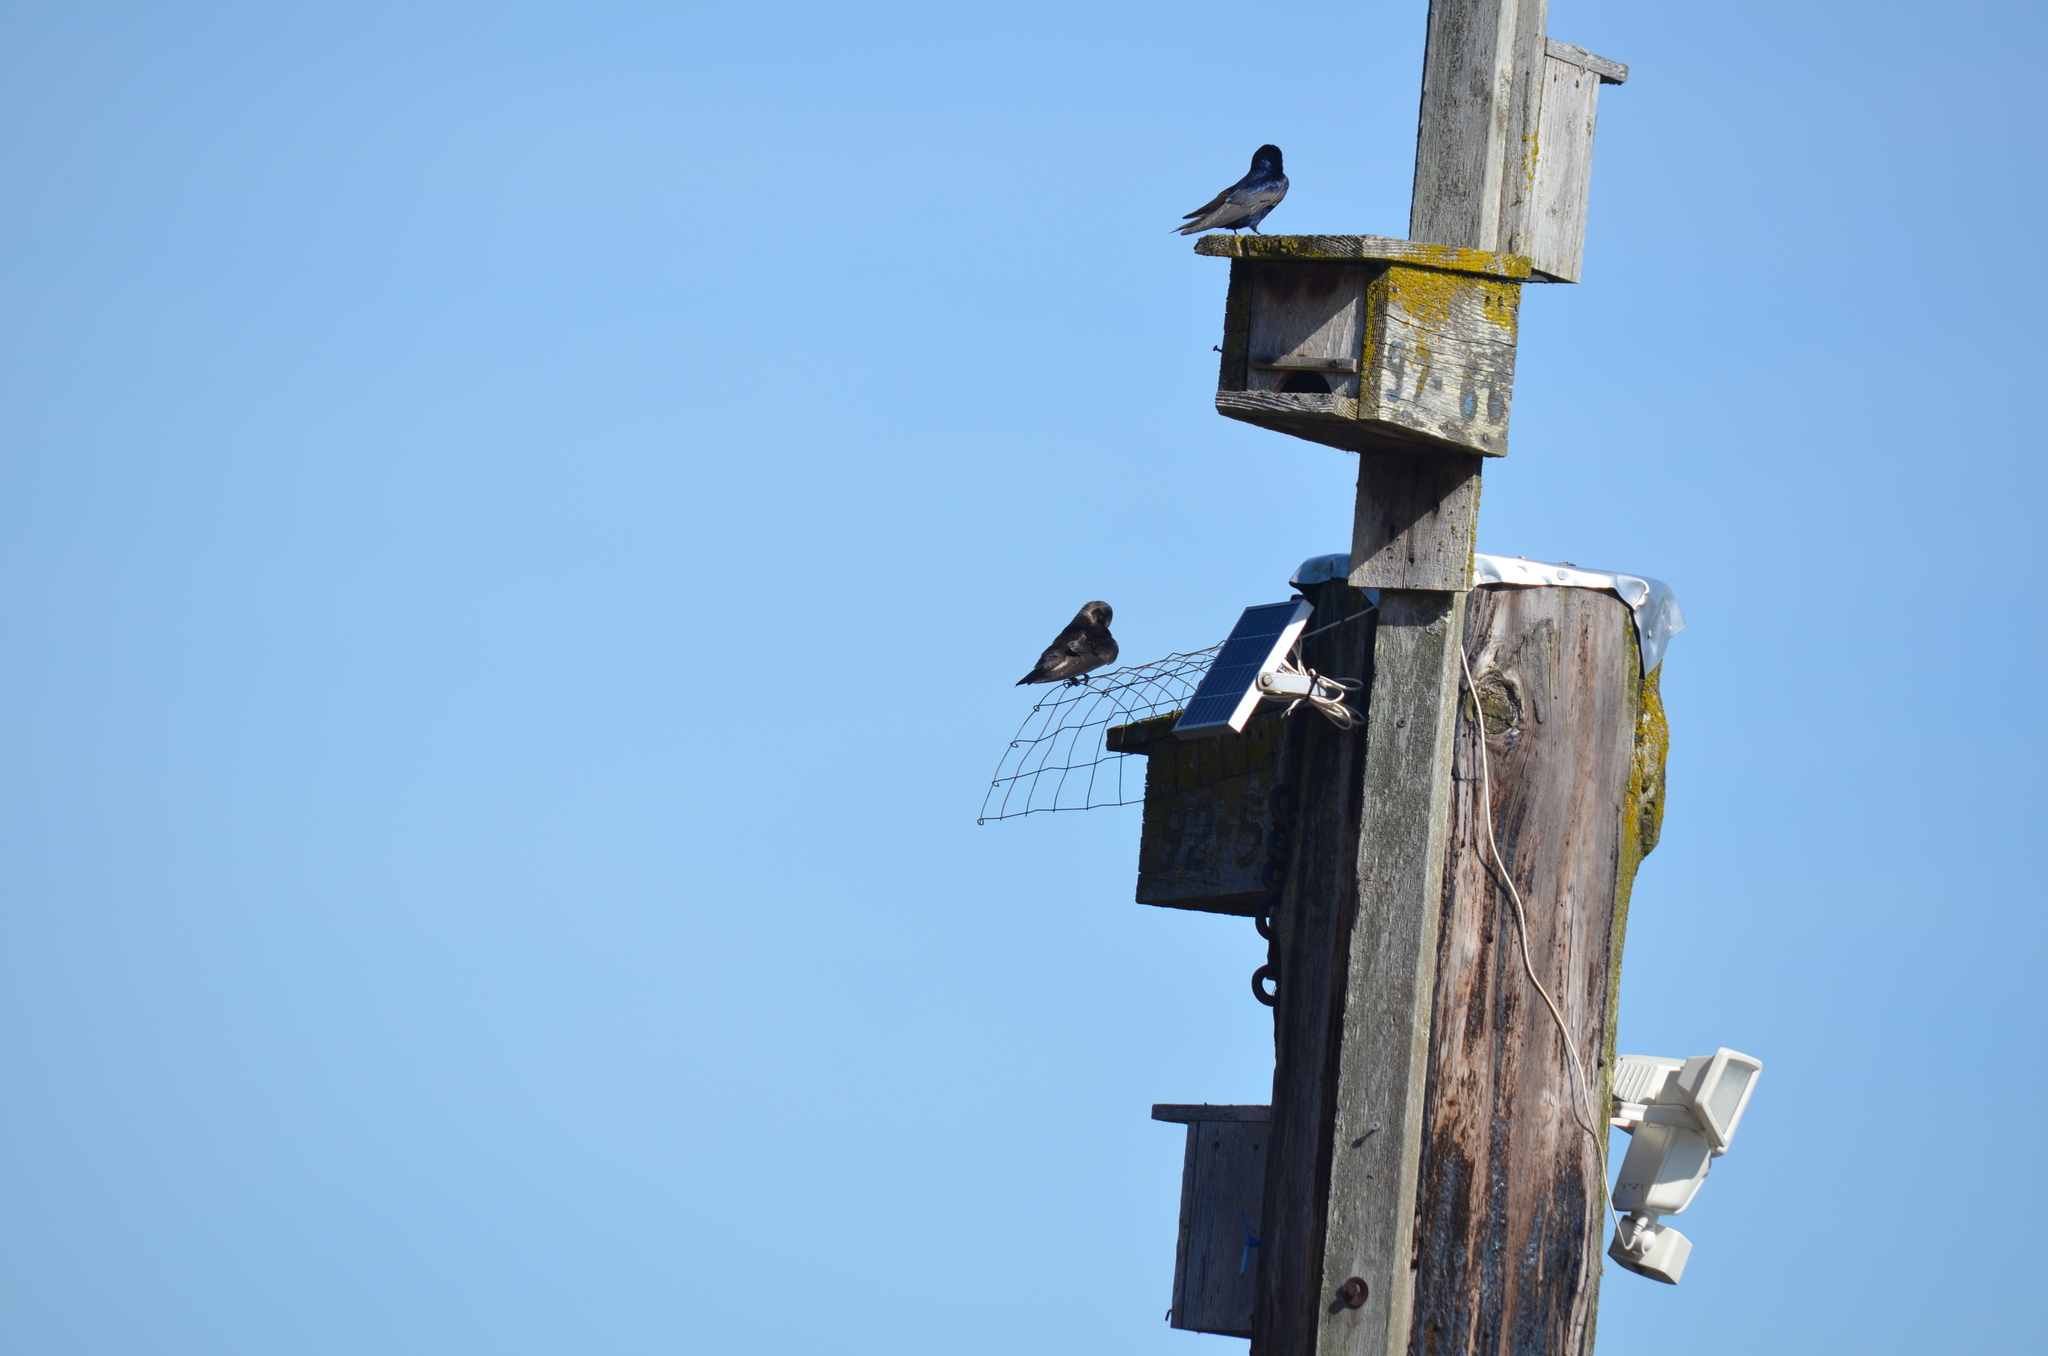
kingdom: Animalia
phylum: Chordata
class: Aves
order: Passeriformes
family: Hirundinidae
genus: Progne
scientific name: Progne subis
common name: Purple martin
